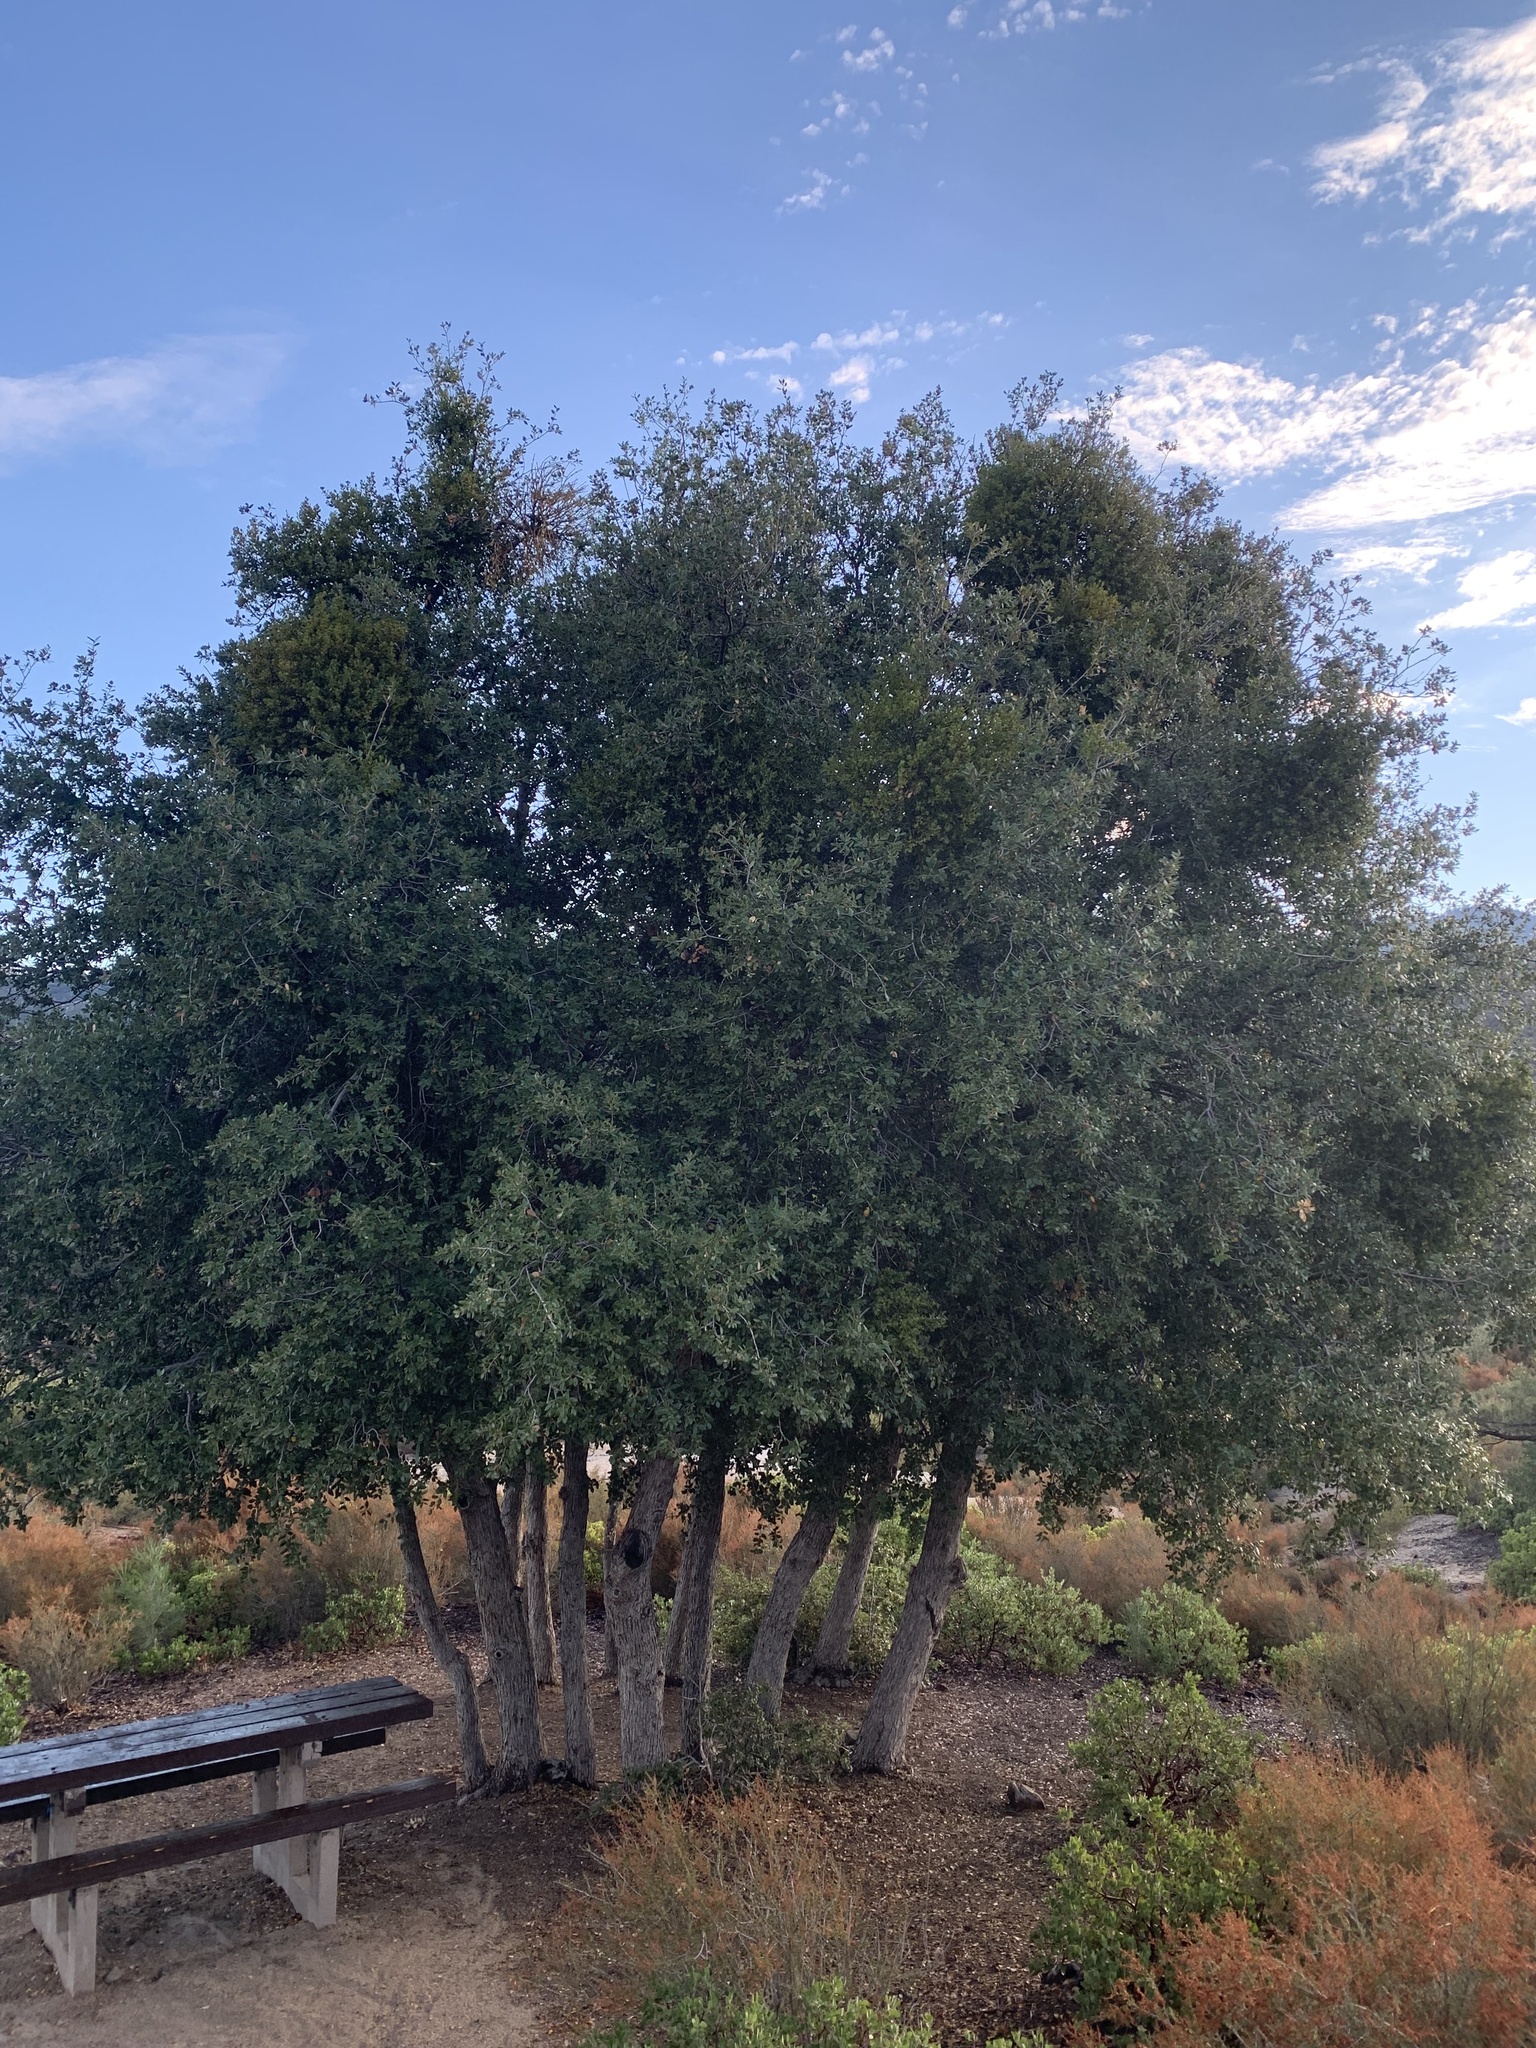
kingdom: Plantae
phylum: Tracheophyta
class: Magnoliopsida
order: Fagales
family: Fagaceae
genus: Quercus
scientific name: Quercus chrysolepis
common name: Canyon live oak
